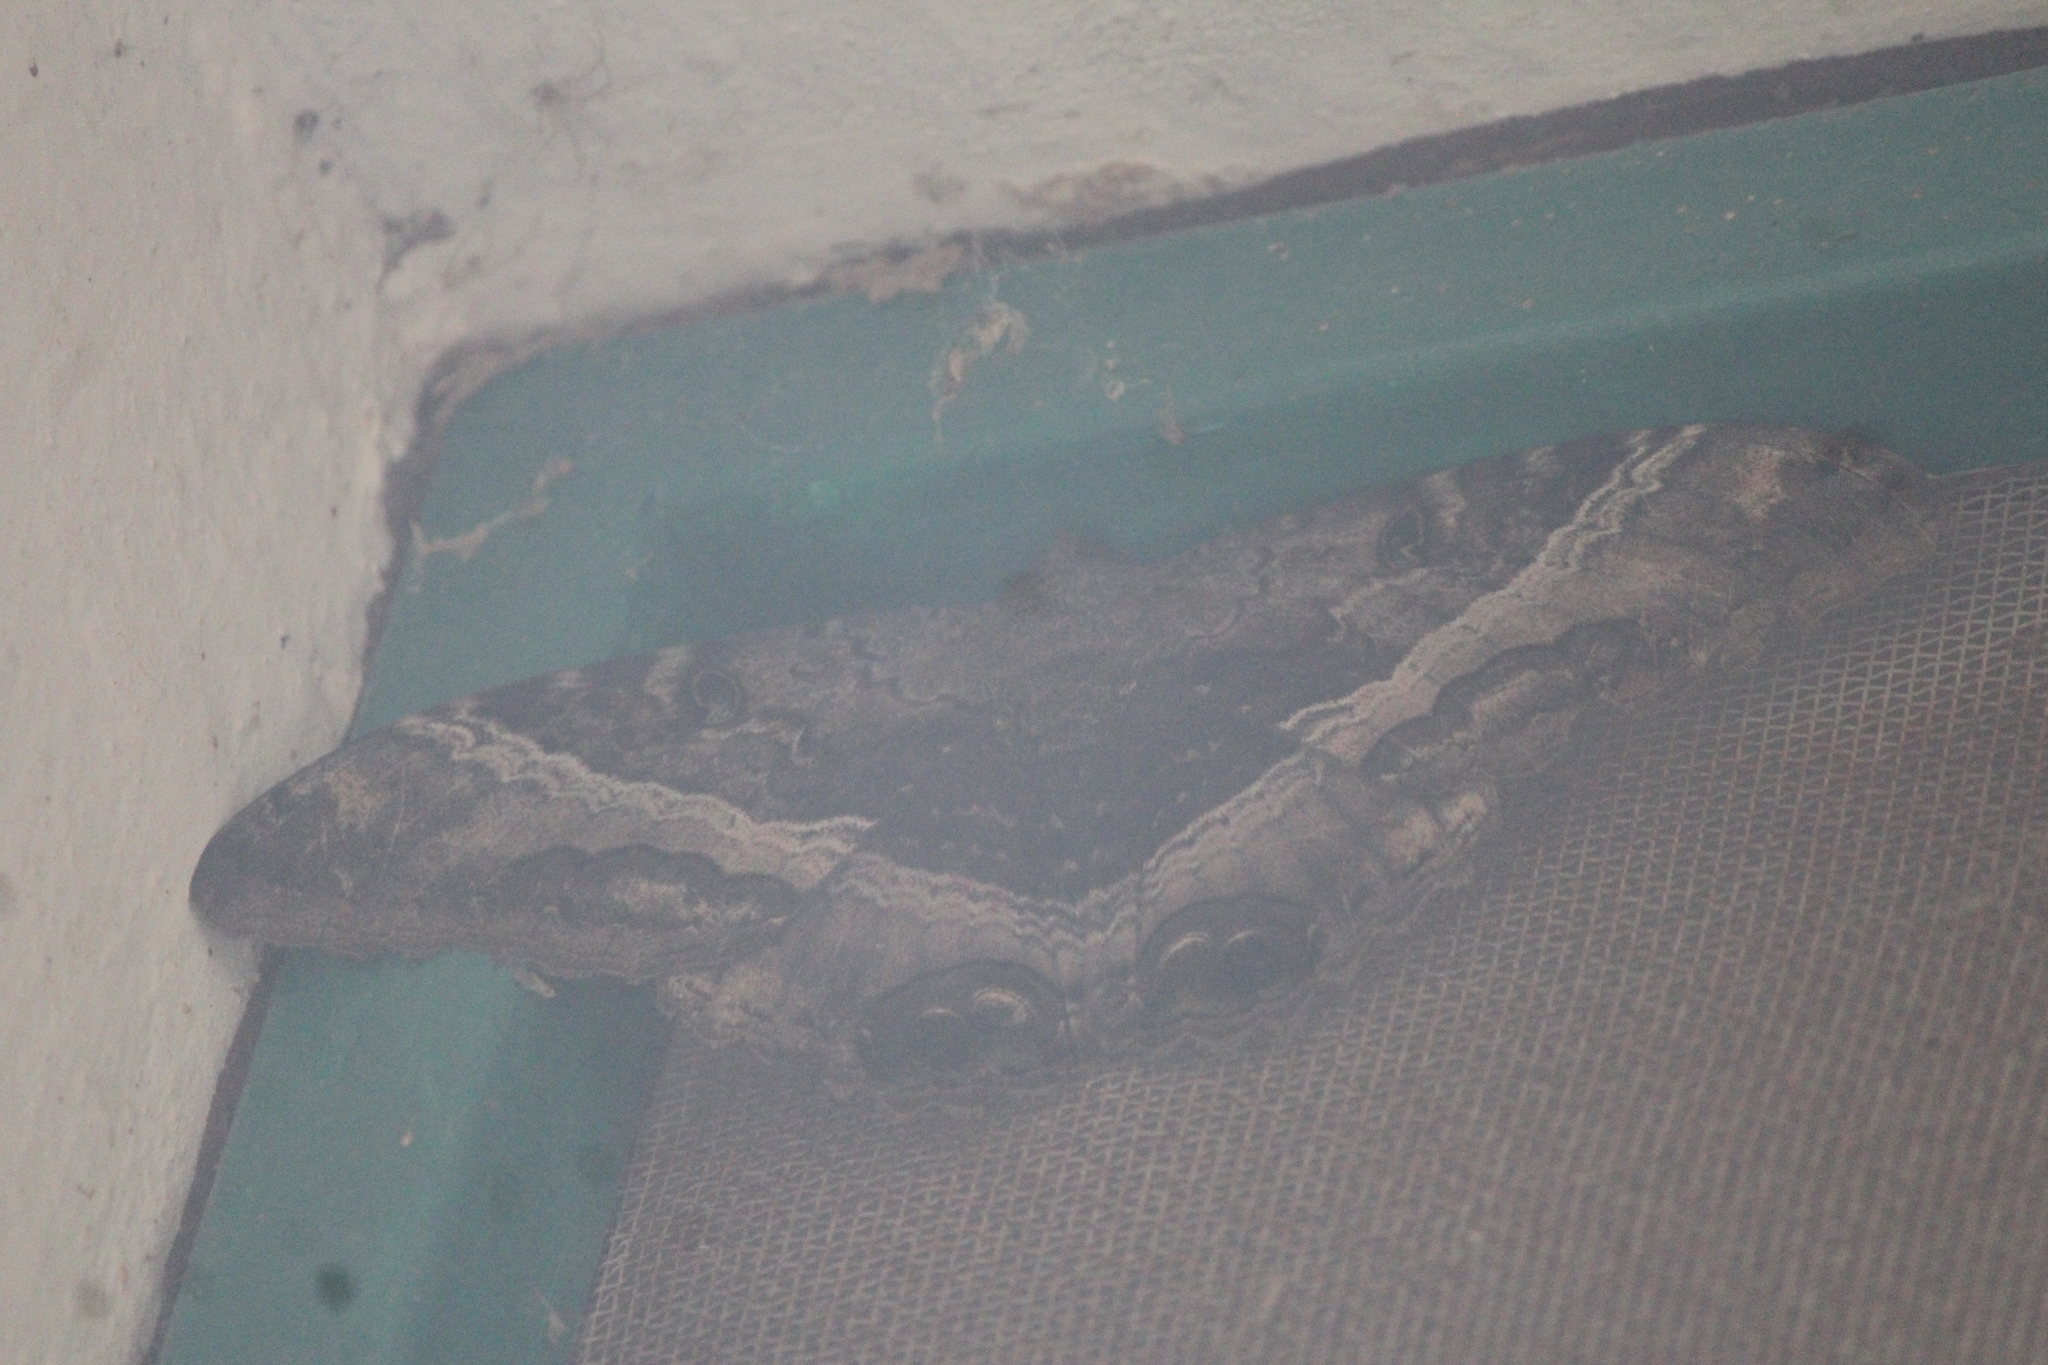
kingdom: Animalia
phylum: Arthropoda
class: Insecta
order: Lepidoptera
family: Erebidae
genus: Ascalapha
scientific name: Ascalapha odorata
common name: Black witch
